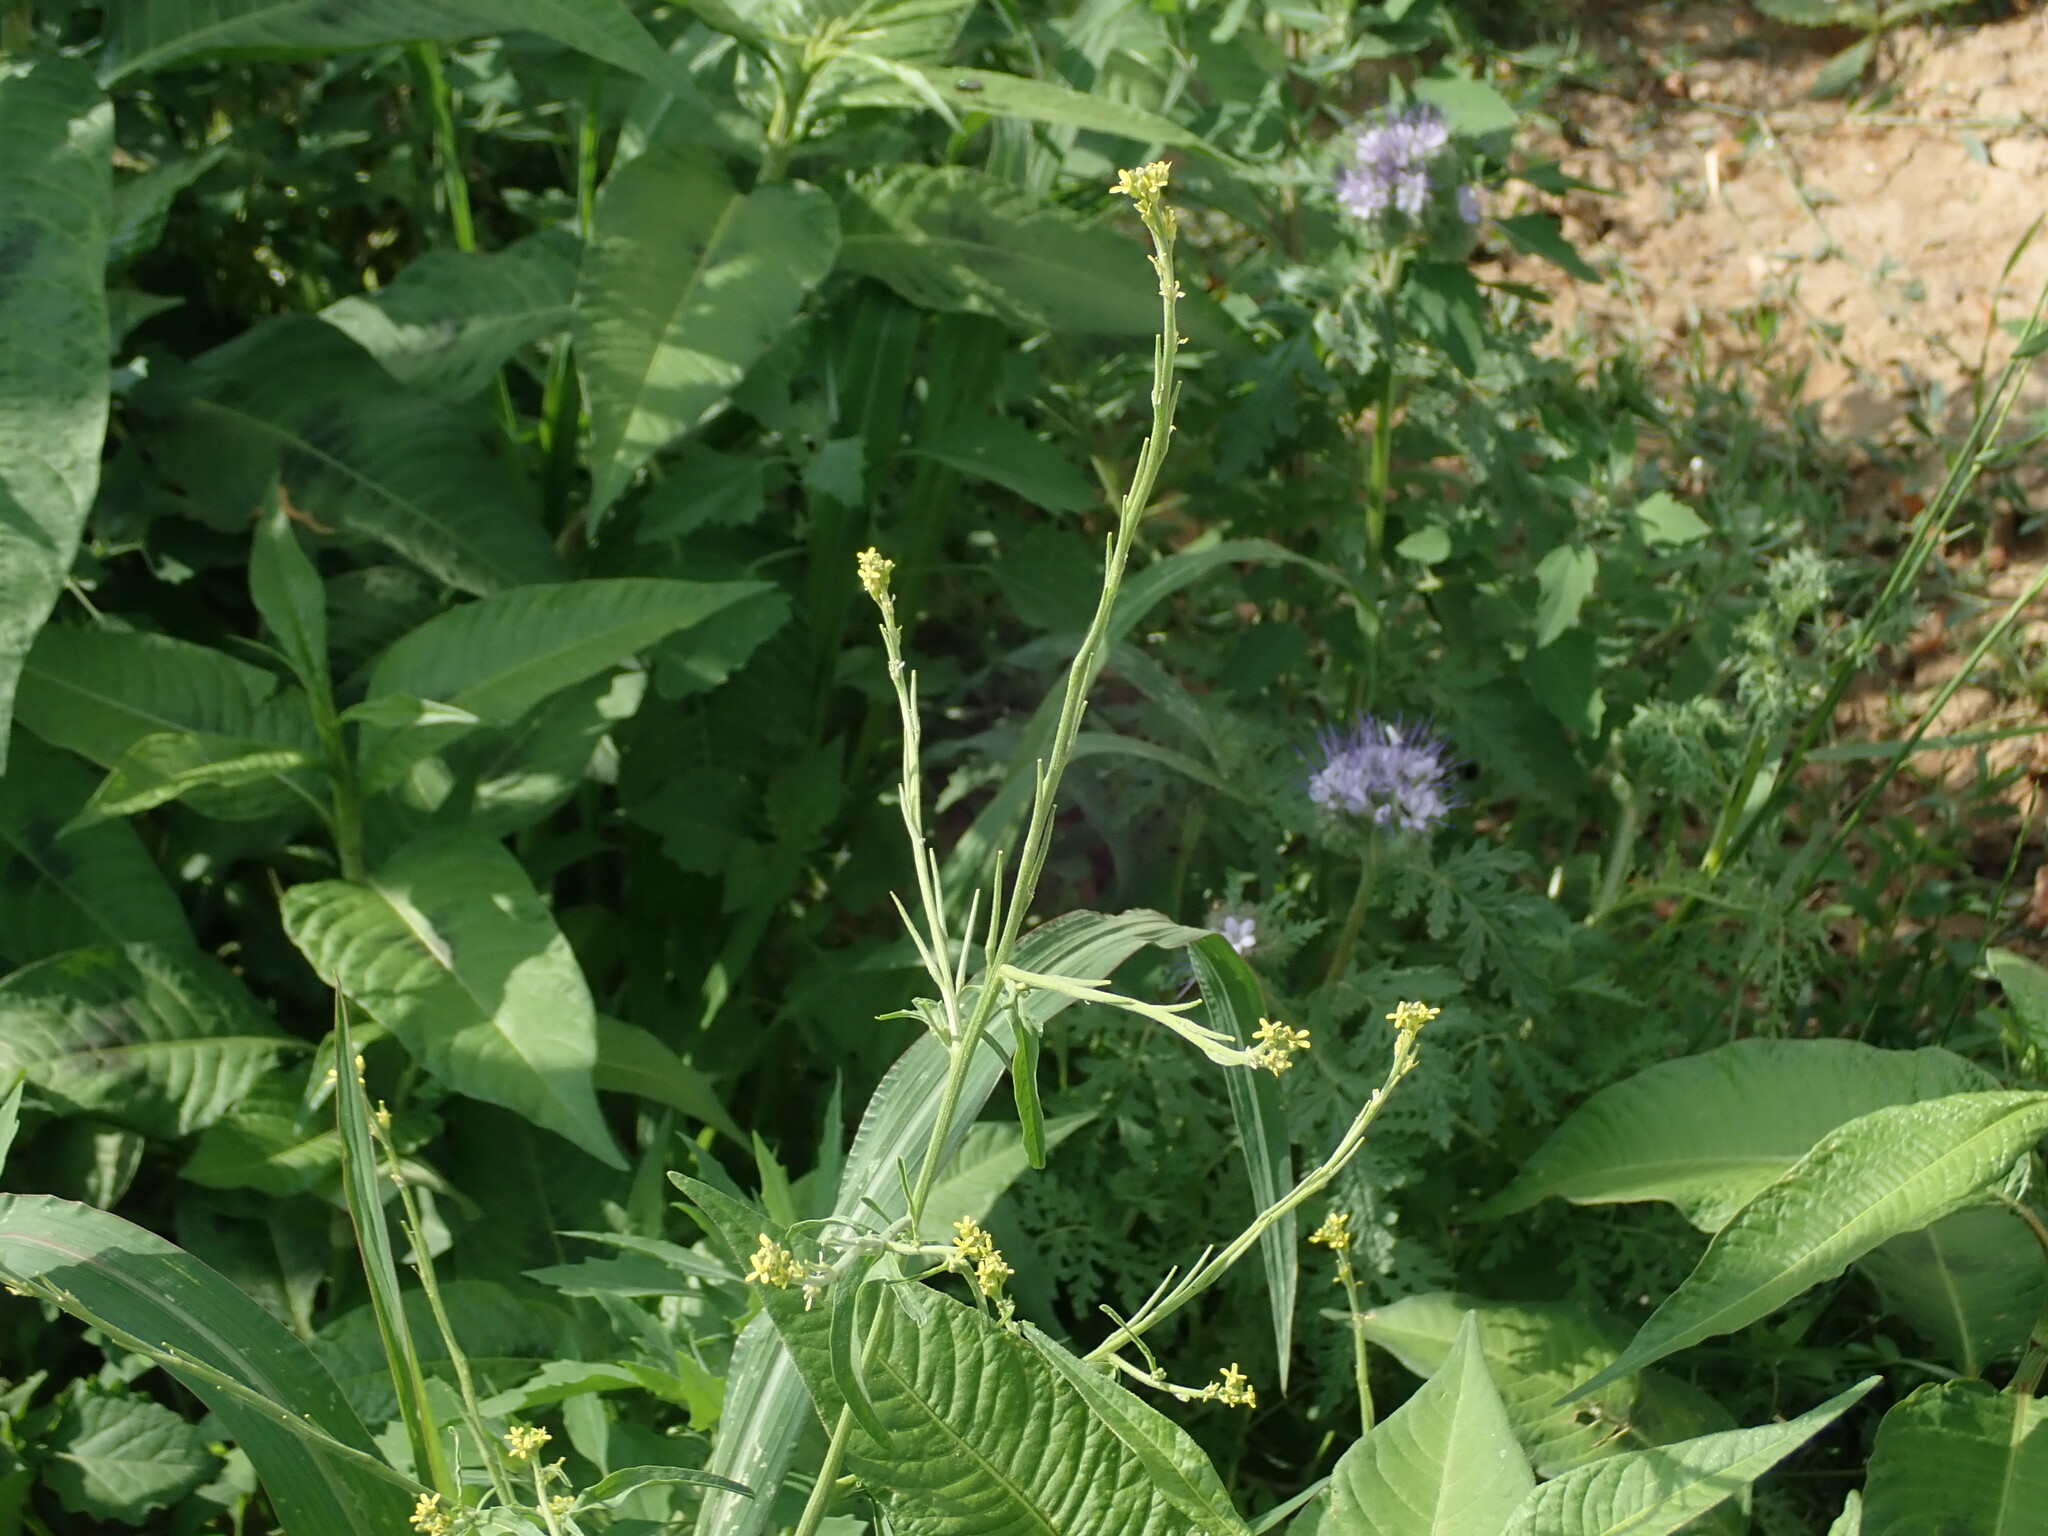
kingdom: Plantae
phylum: Tracheophyta
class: Magnoliopsida
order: Brassicales
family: Brassicaceae
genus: Sisymbrium
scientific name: Sisymbrium officinale
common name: Hedge mustard
